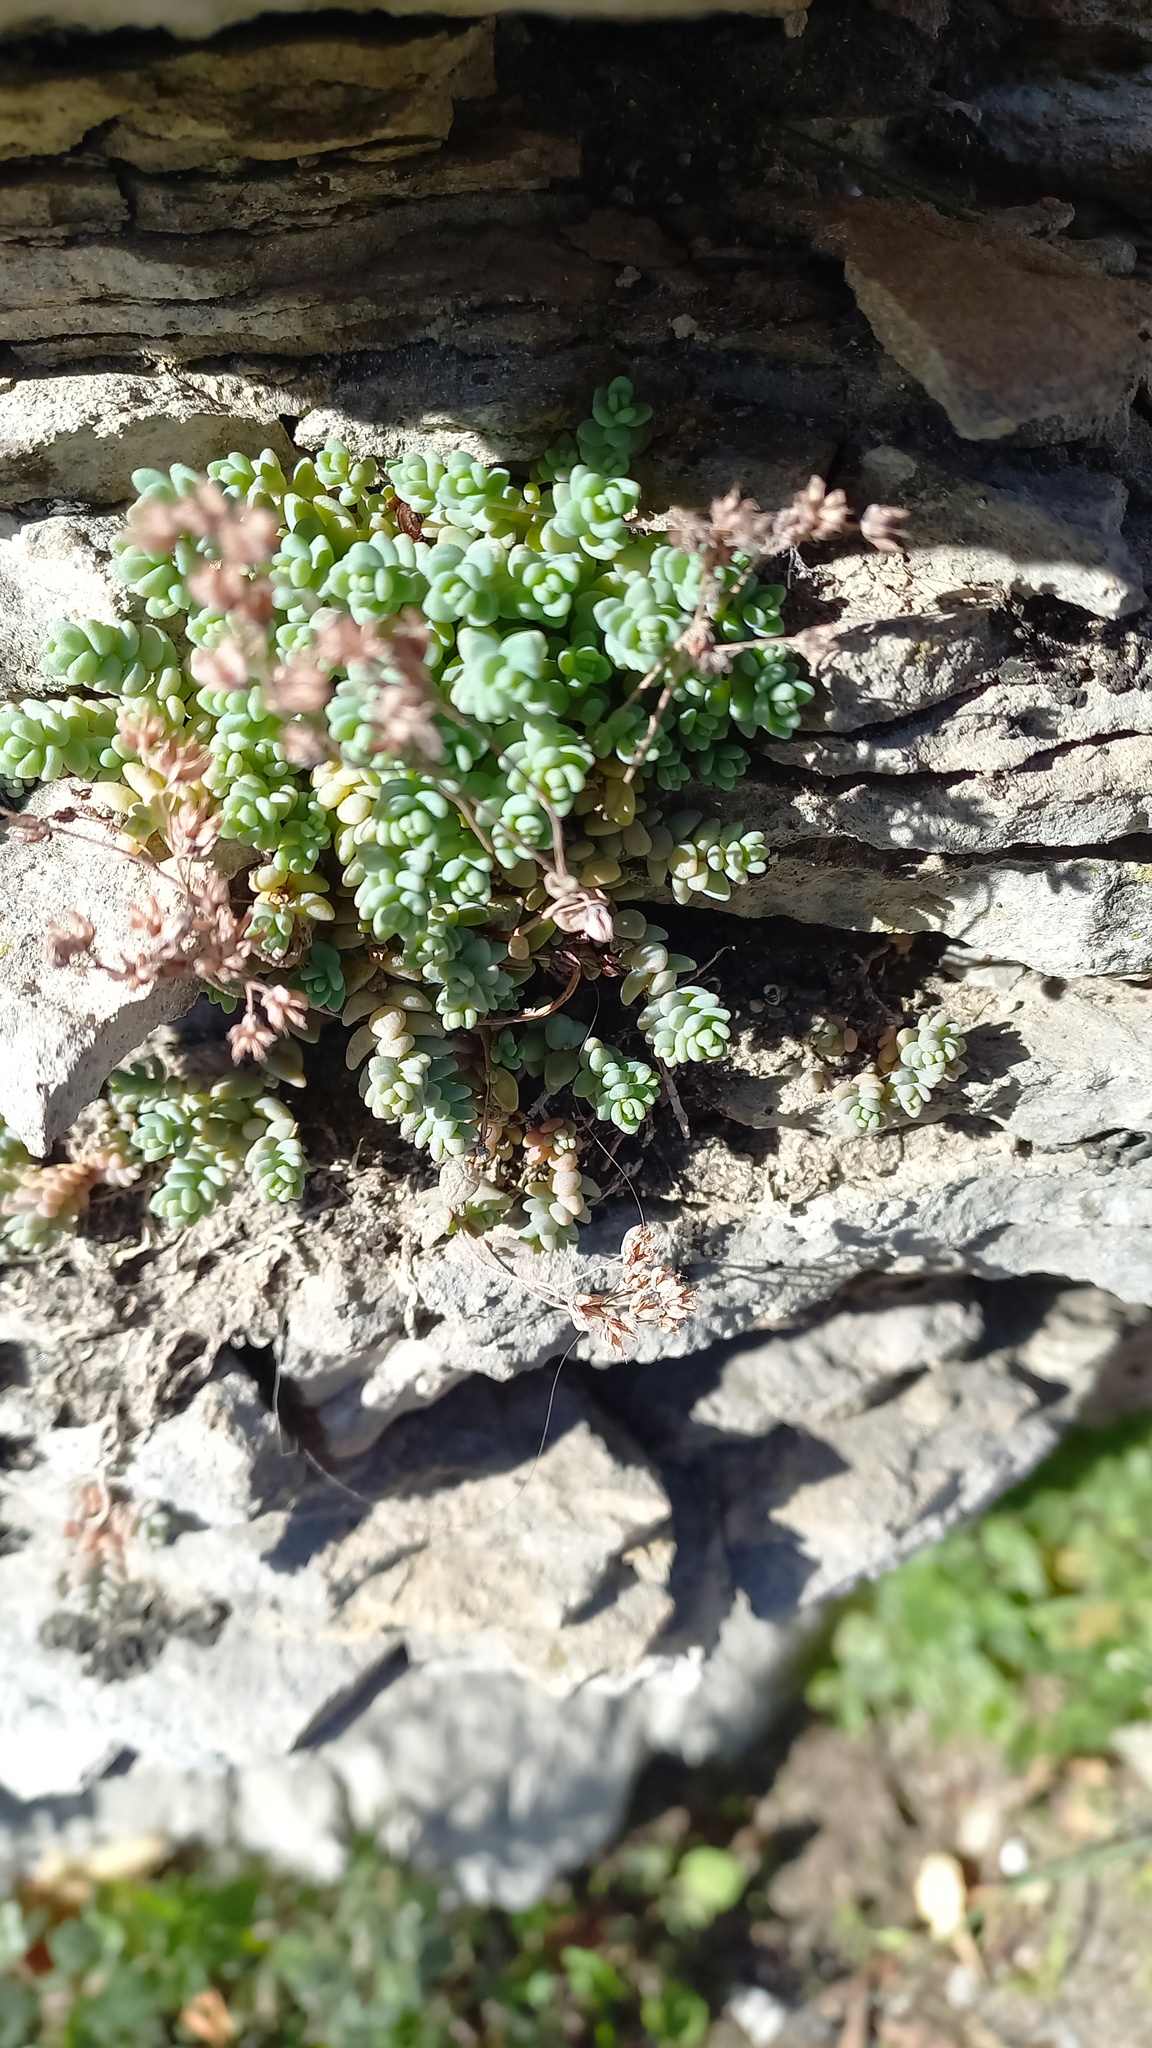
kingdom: Plantae
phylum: Tracheophyta
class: Magnoliopsida
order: Saxifragales
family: Crassulaceae
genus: Sedum
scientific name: Sedum dasyphyllum
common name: Thick-leaf stonecrop
